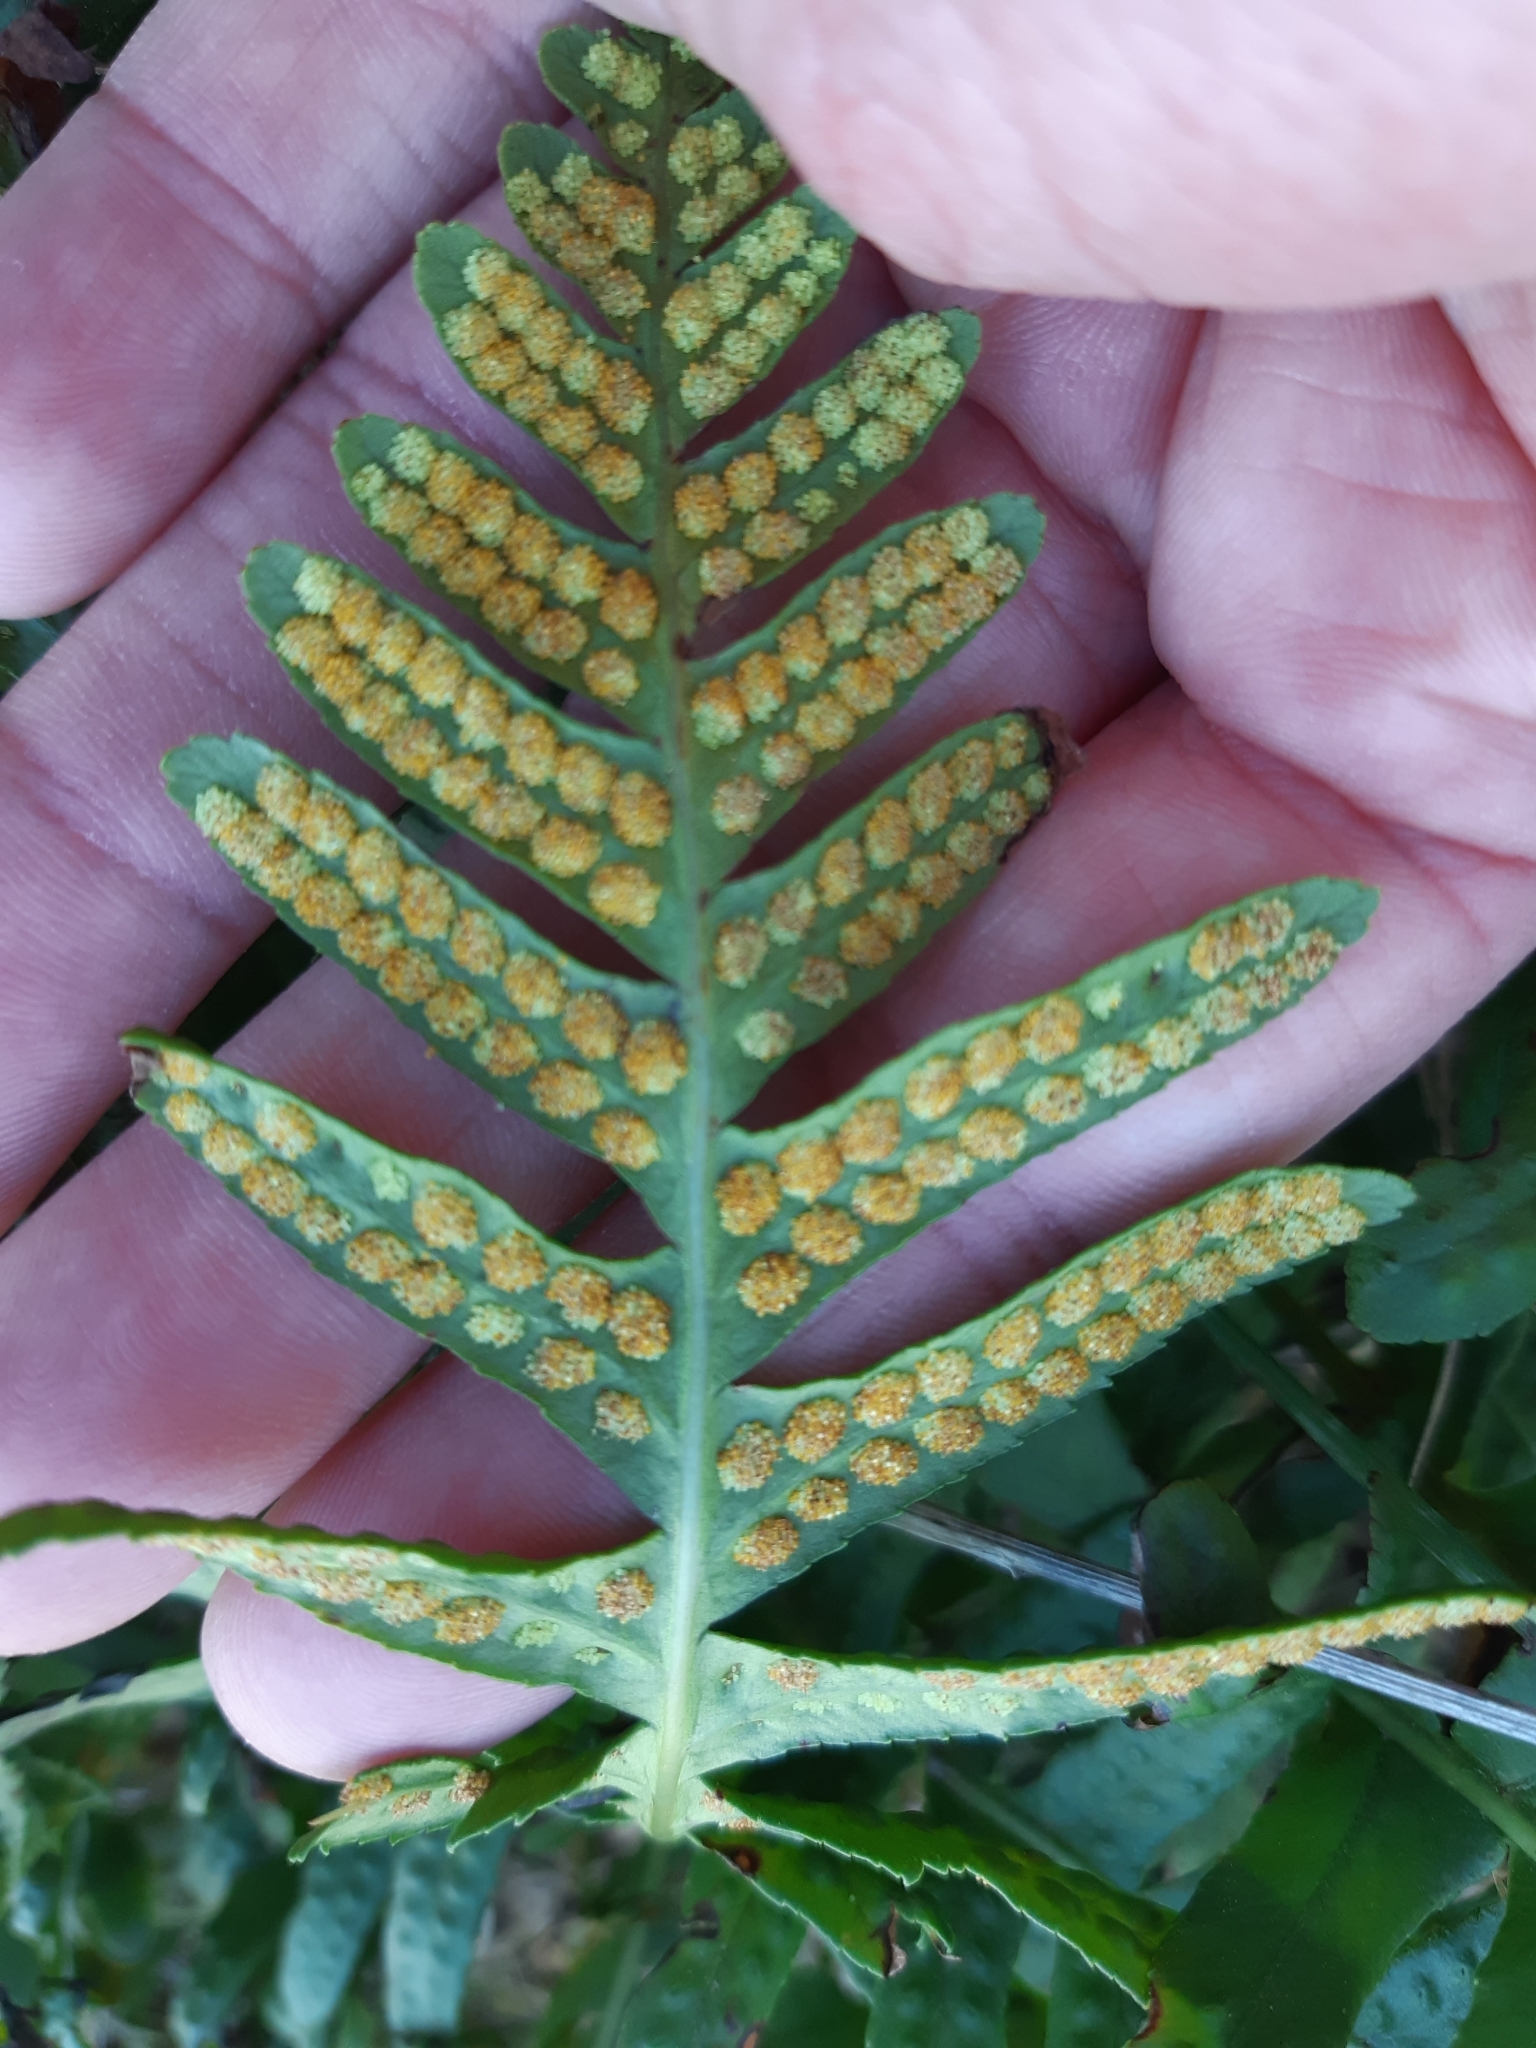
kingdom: Plantae
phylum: Tracheophyta
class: Polypodiopsida
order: Polypodiales
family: Polypodiaceae
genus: Polypodium
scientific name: Polypodium vulgare
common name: Common polypody
